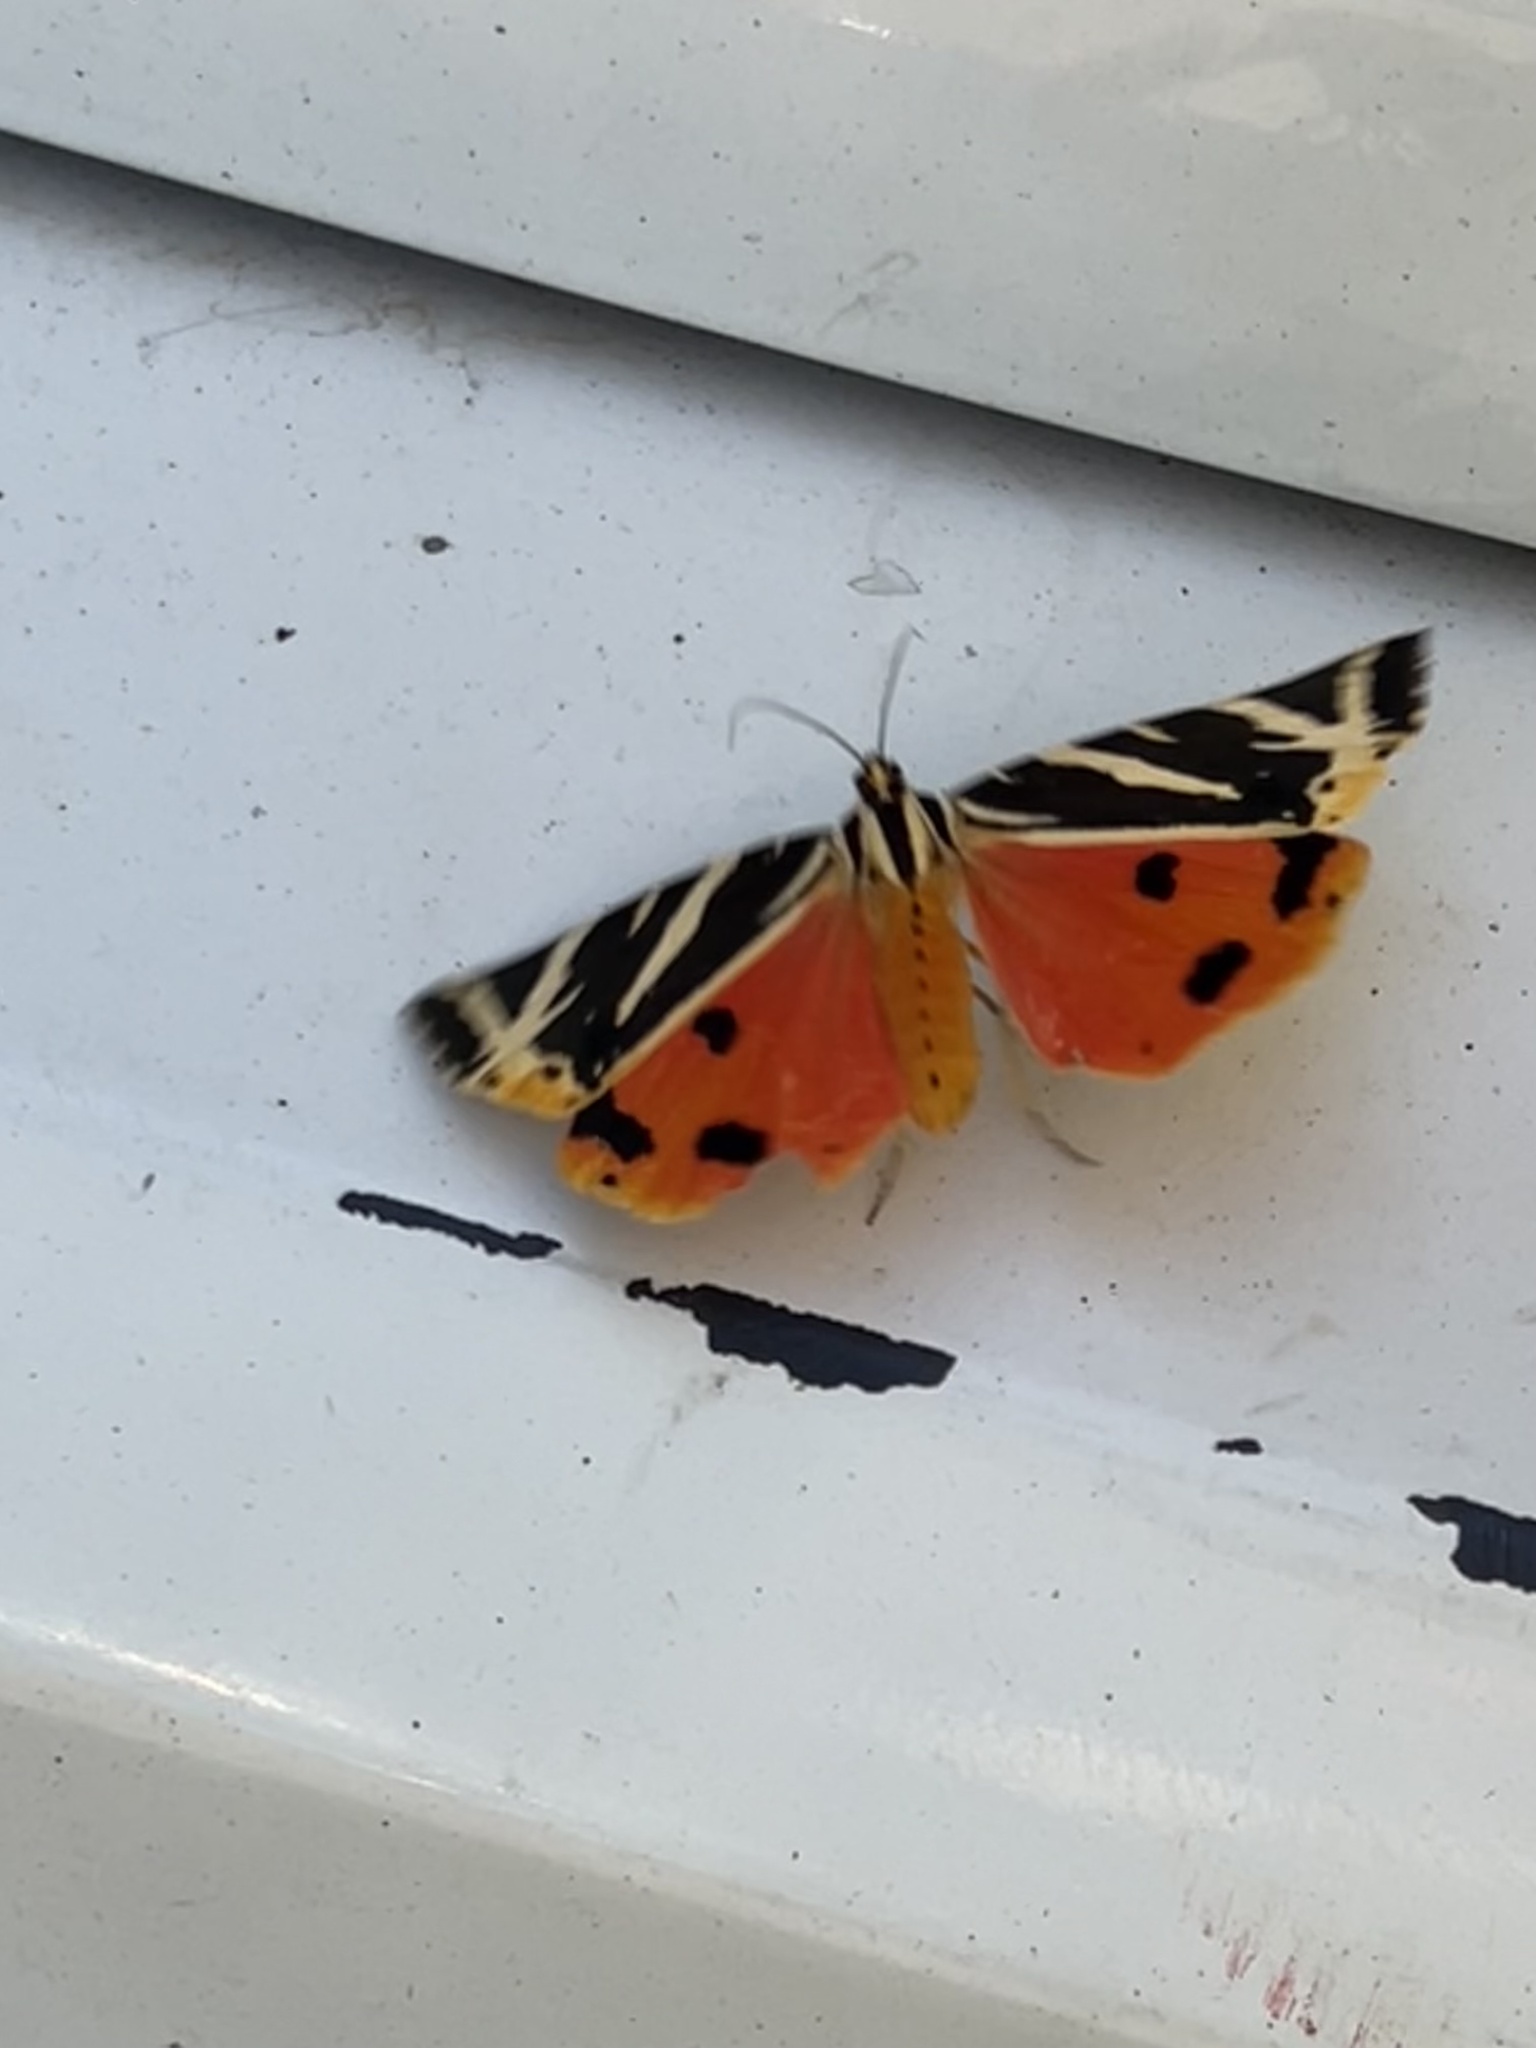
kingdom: Animalia
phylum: Arthropoda
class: Insecta
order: Lepidoptera
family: Erebidae
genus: Euplagia
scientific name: Euplagia quadripunctaria
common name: Jersey tiger
